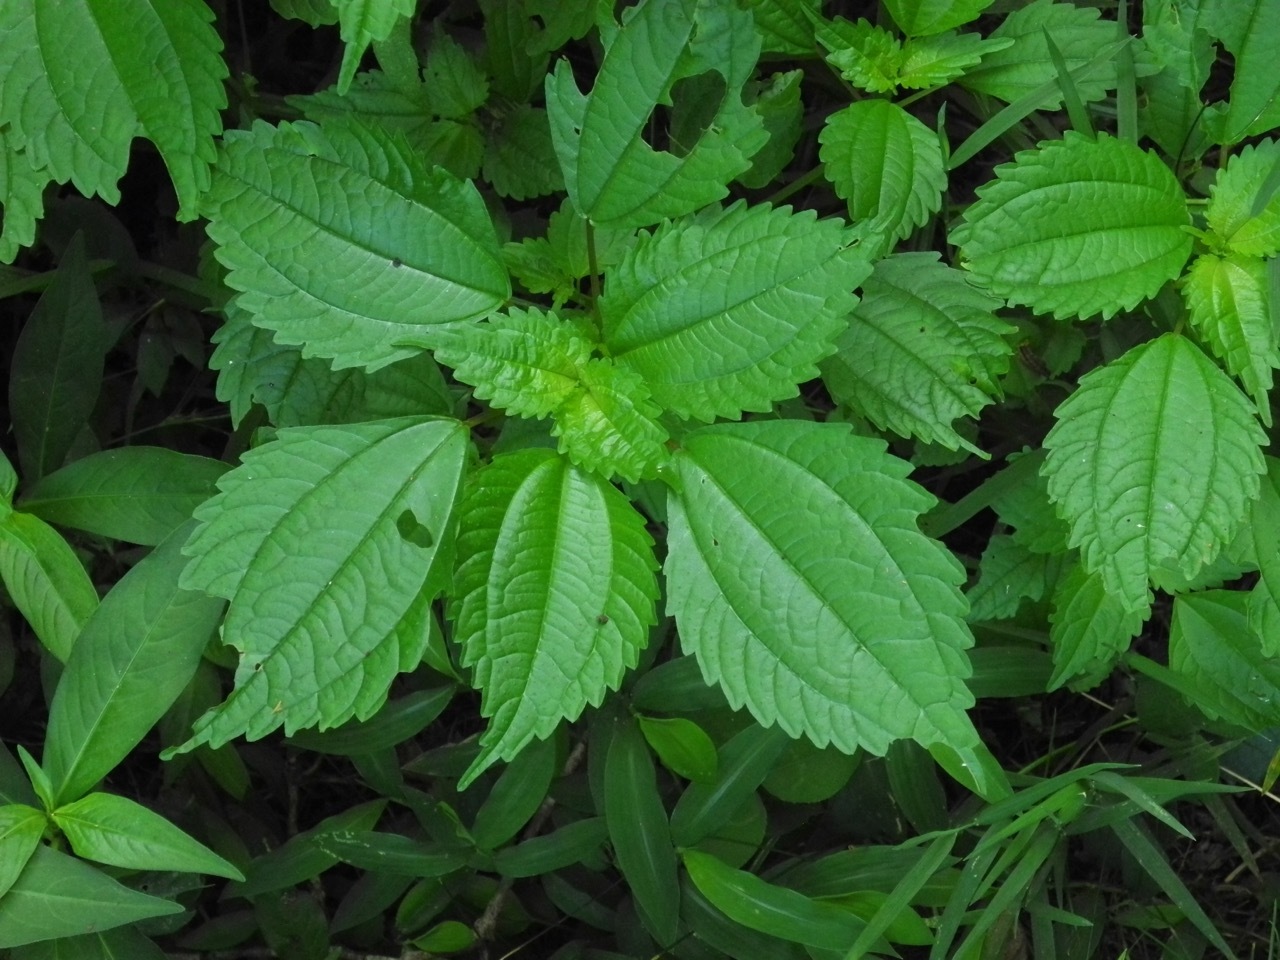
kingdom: Plantae
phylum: Tracheophyta
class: Magnoliopsida
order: Rosales
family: Urticaceae
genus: Pilea
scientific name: Pilea pumila
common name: Clearweed
